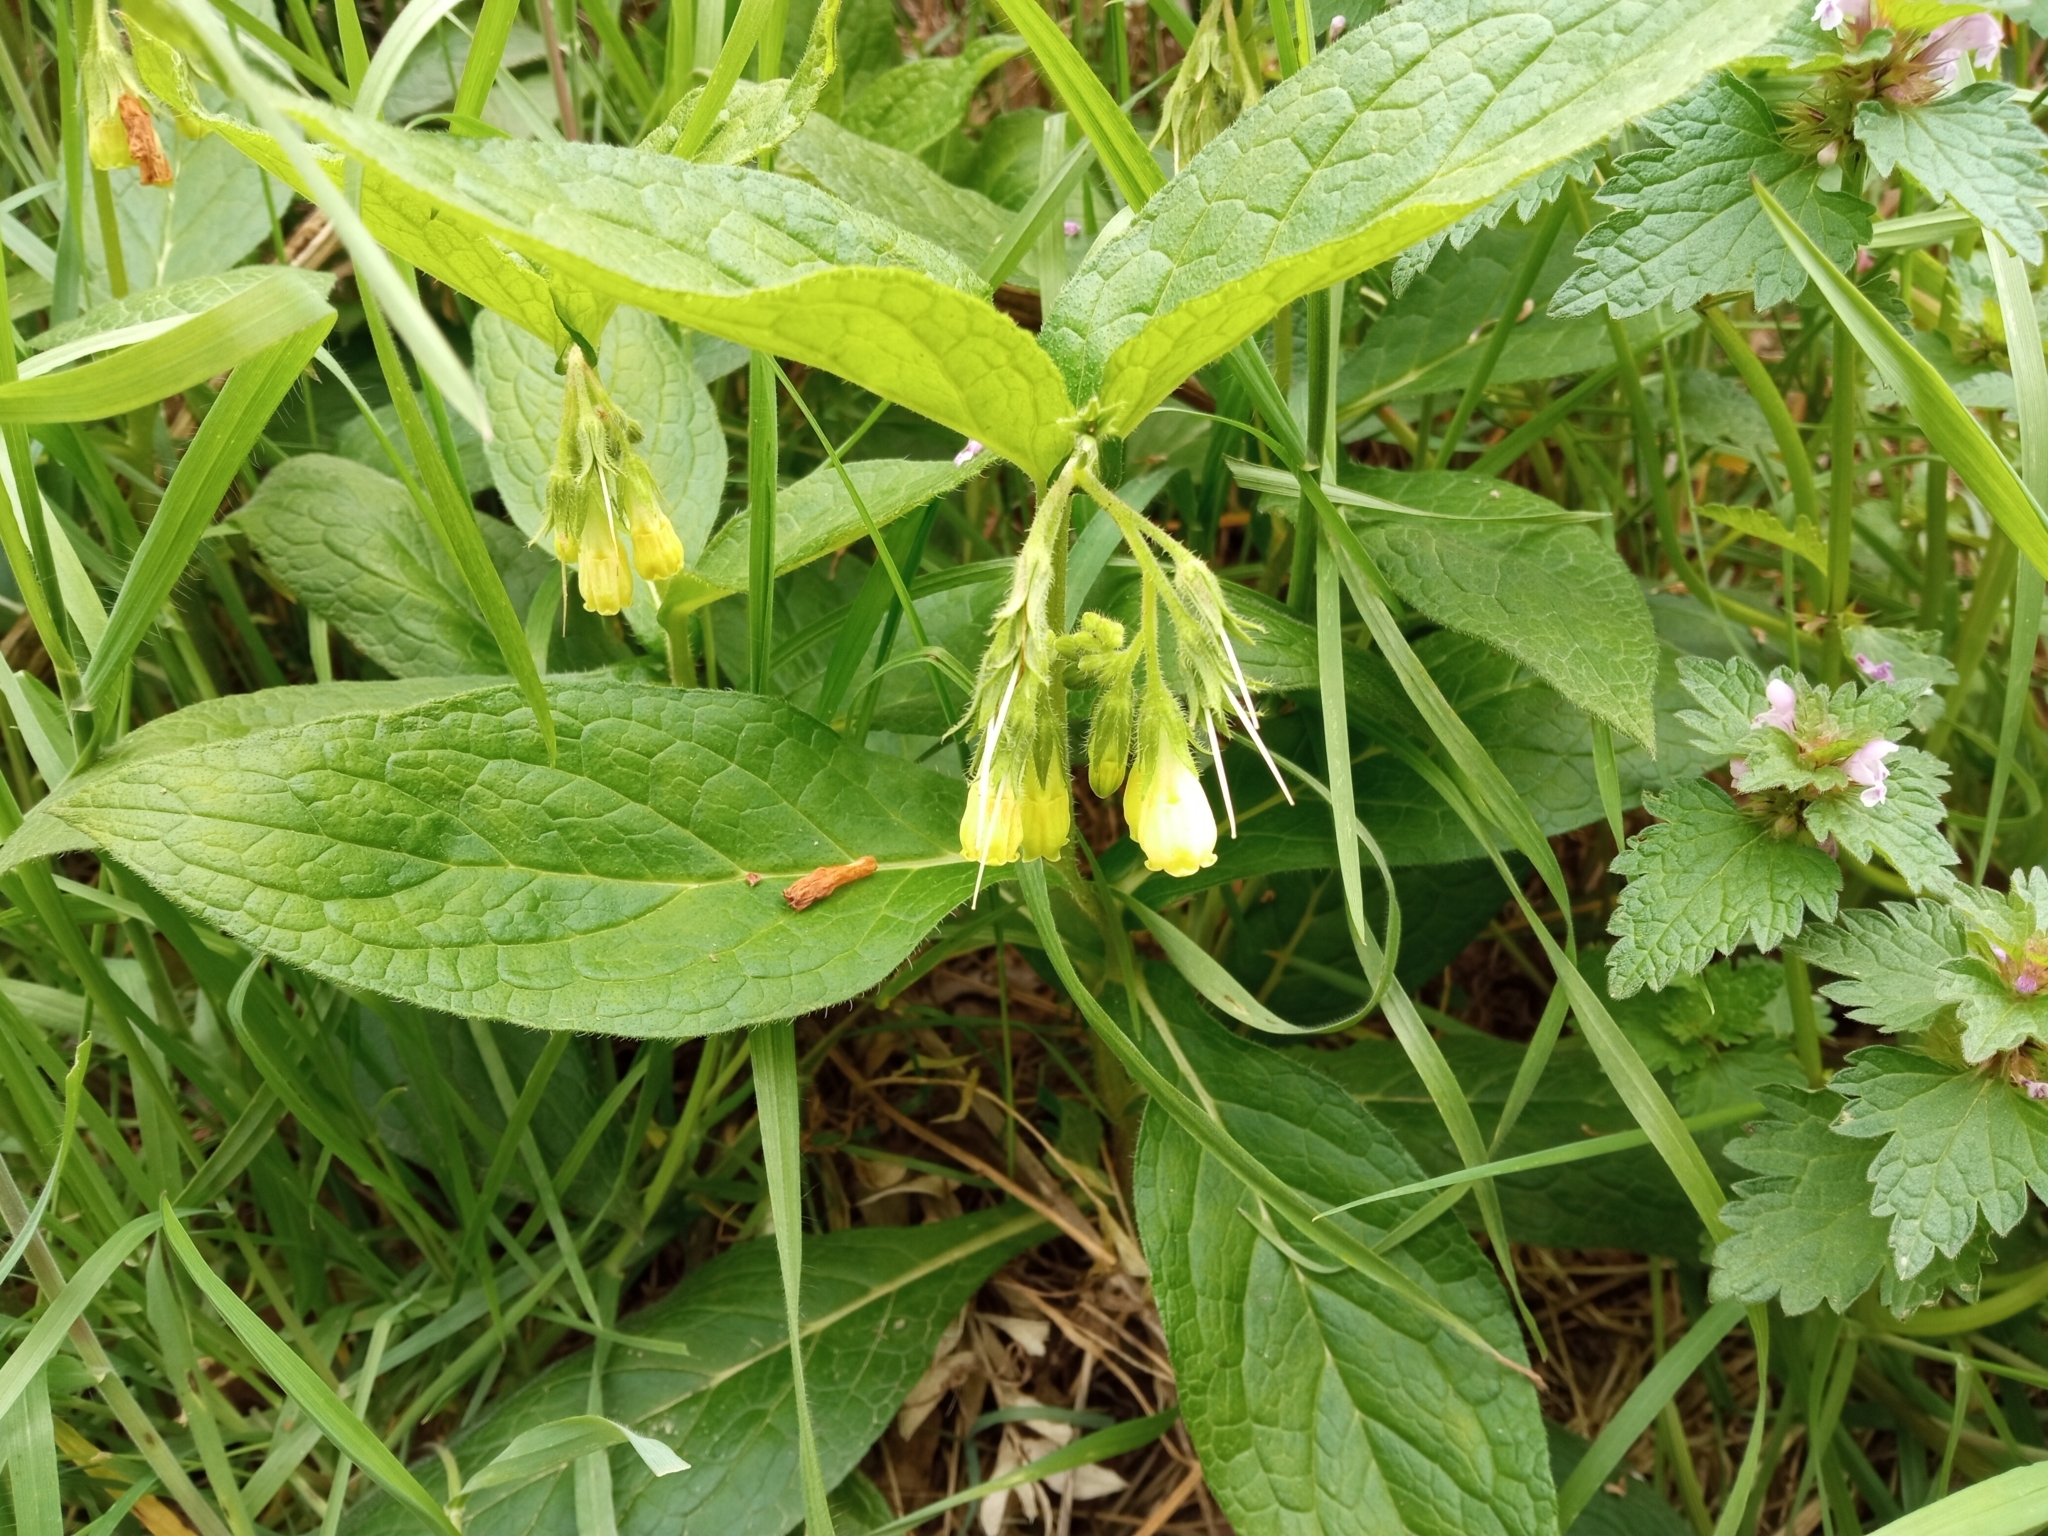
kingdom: Plantae
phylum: Tracheophyta
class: Magnoliopsida
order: Boraginales
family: Boraginaceae
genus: Symphytum
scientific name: Symphytum tuberosum
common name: Tuberous comfrey
